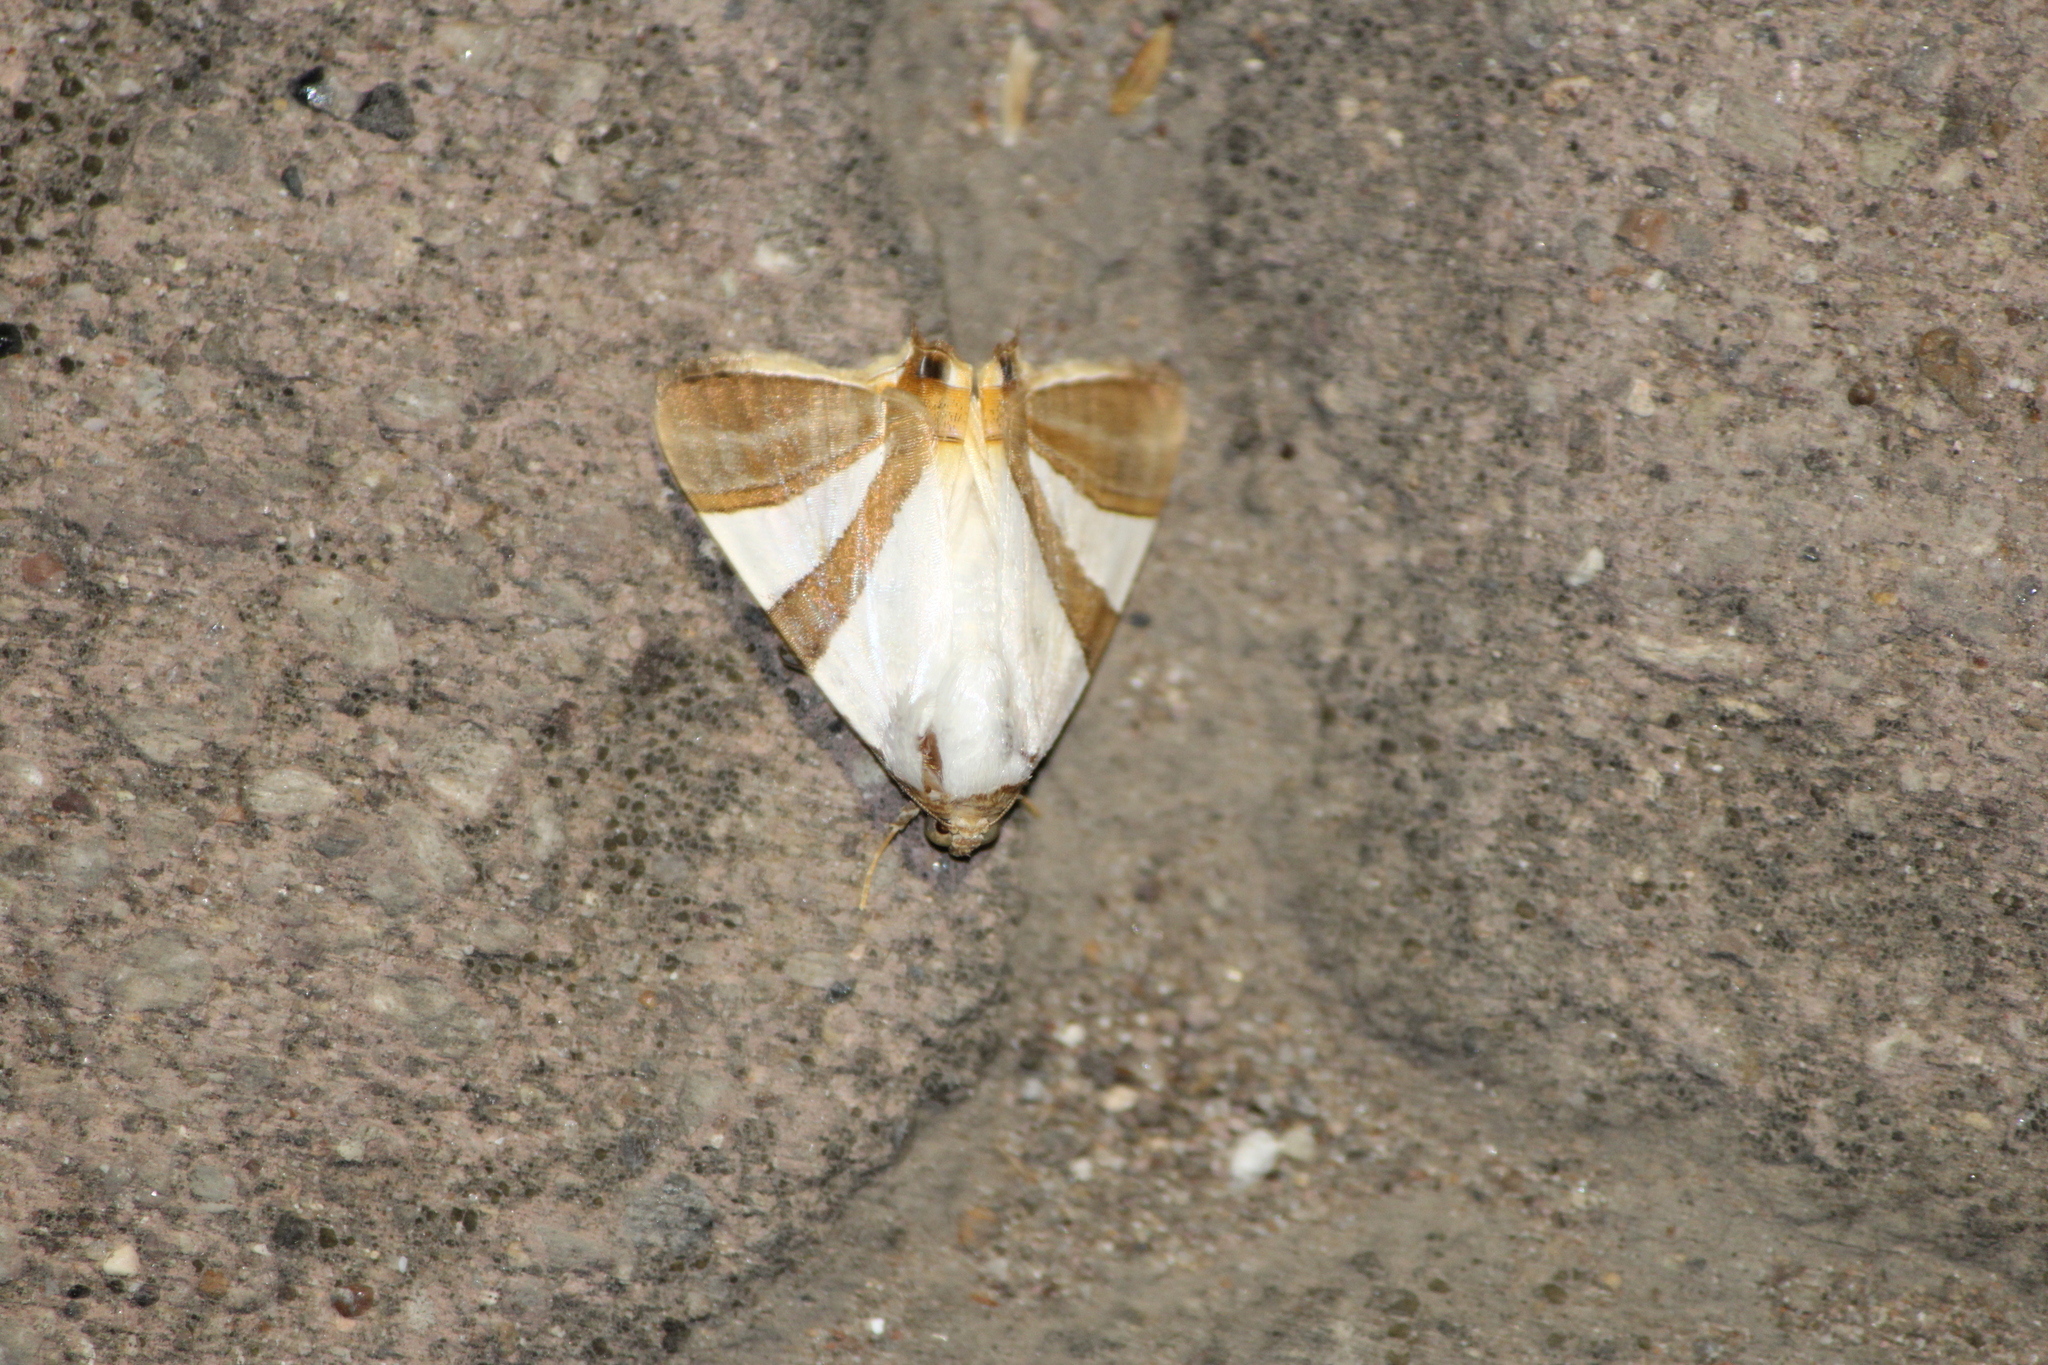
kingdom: Animalia
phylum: Arthropoda
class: Insecta
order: Lepidoptera
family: Erebidae
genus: Eulepidotis
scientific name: Eulepidotis rectimargo
